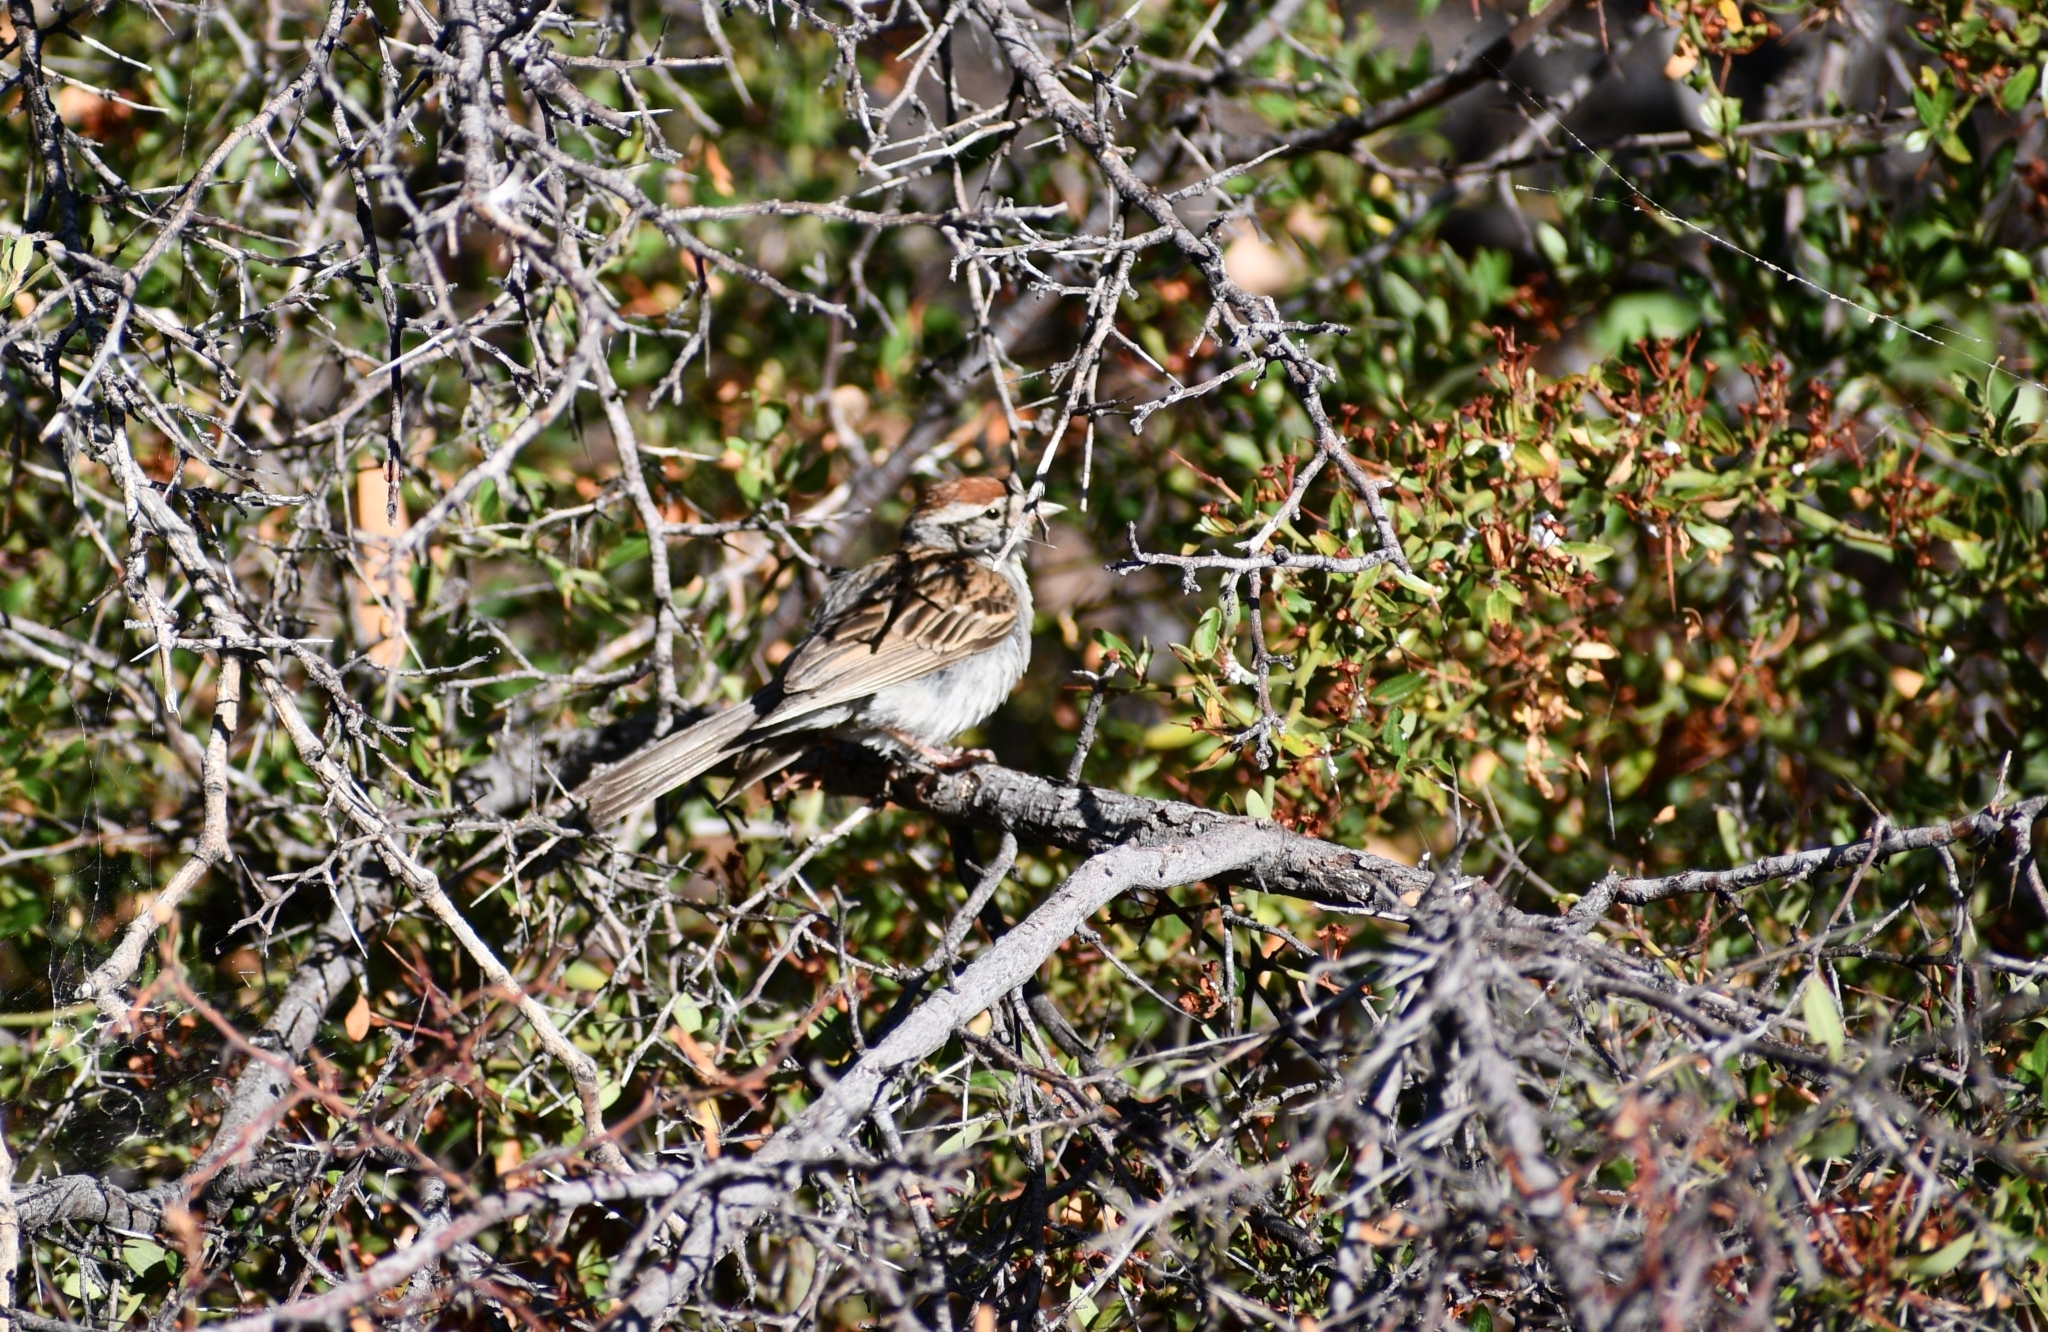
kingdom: Animalia
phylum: Chordata
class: Aves
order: Passeriformes
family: Passerellidae
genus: Spizella
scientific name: Spizella passerina
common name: Chipping sparrow
